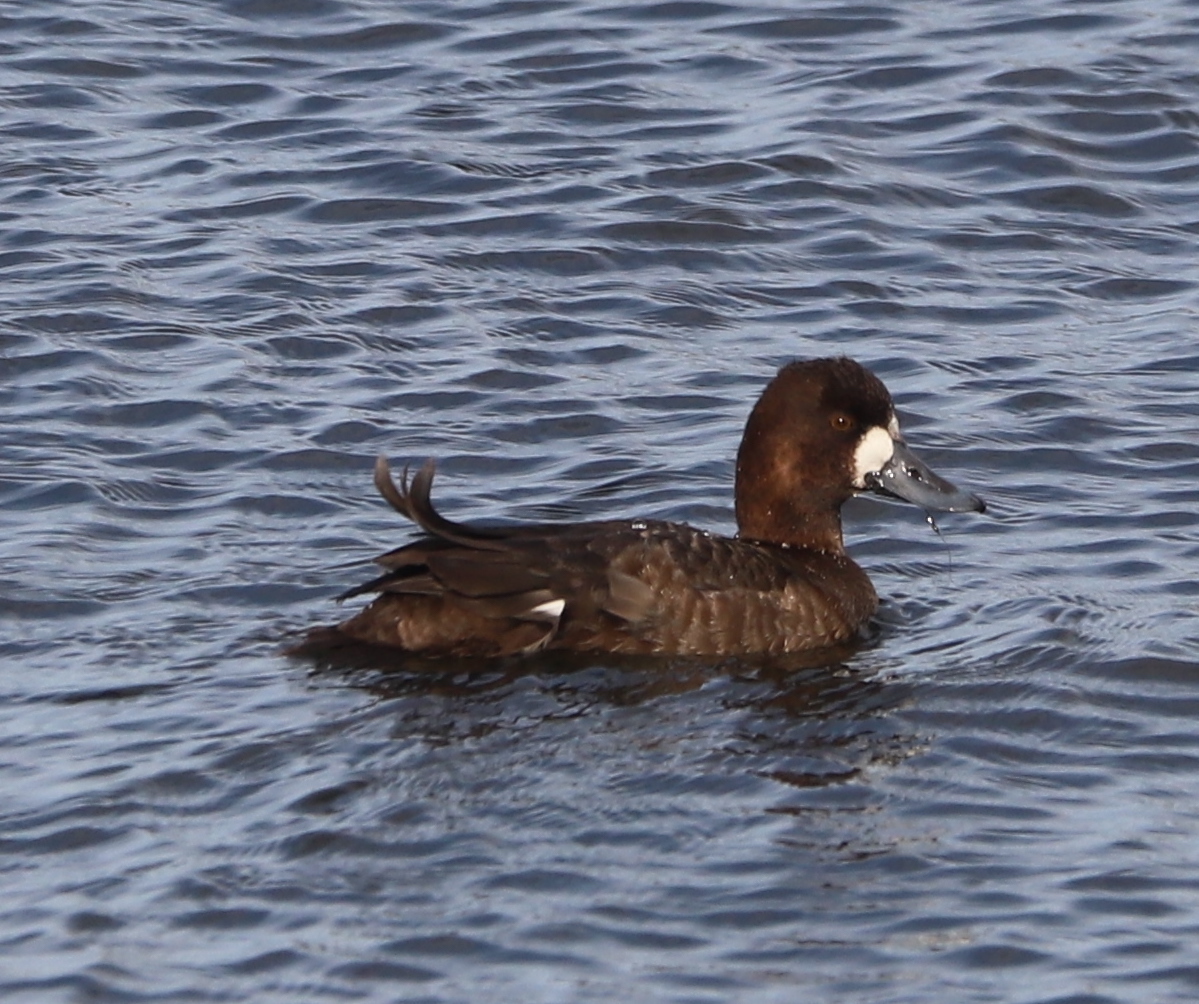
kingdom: Animalia
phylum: Chordata
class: Aves
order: Anseriformes
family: Anatidae
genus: Aythya
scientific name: Aythya affinis
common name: Lesser scaup
